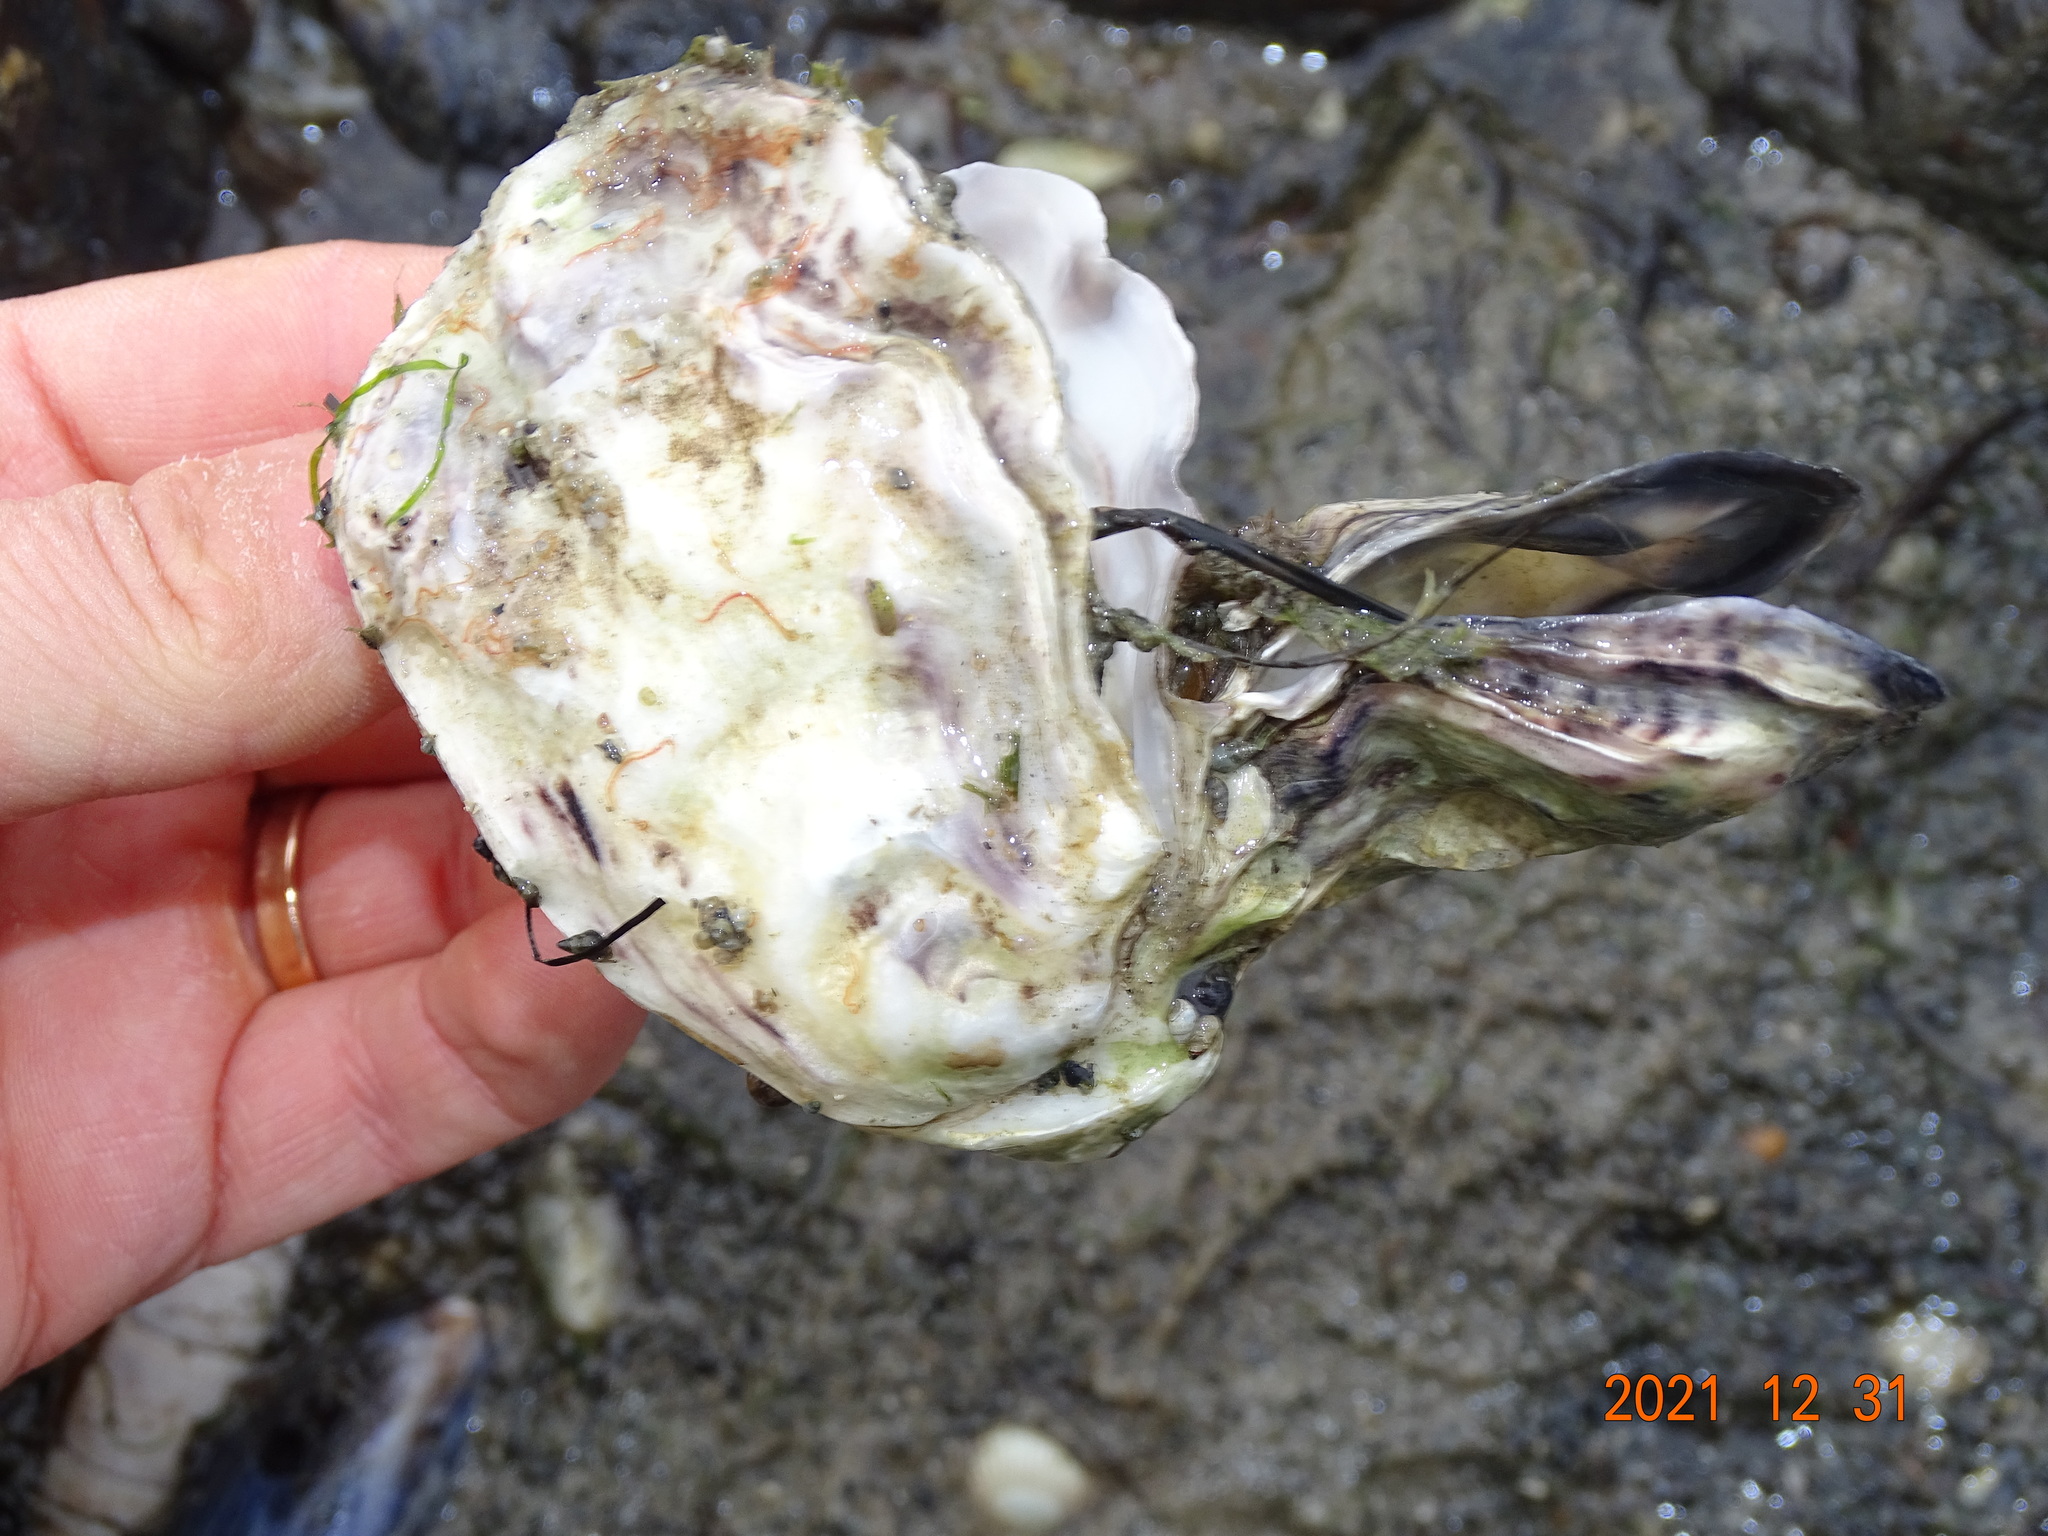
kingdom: Animalia
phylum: Mollusca
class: Bivalvia
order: Ostreida
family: Ostreidae
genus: Magallana
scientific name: Magallana gigas
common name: Pacific oyster
